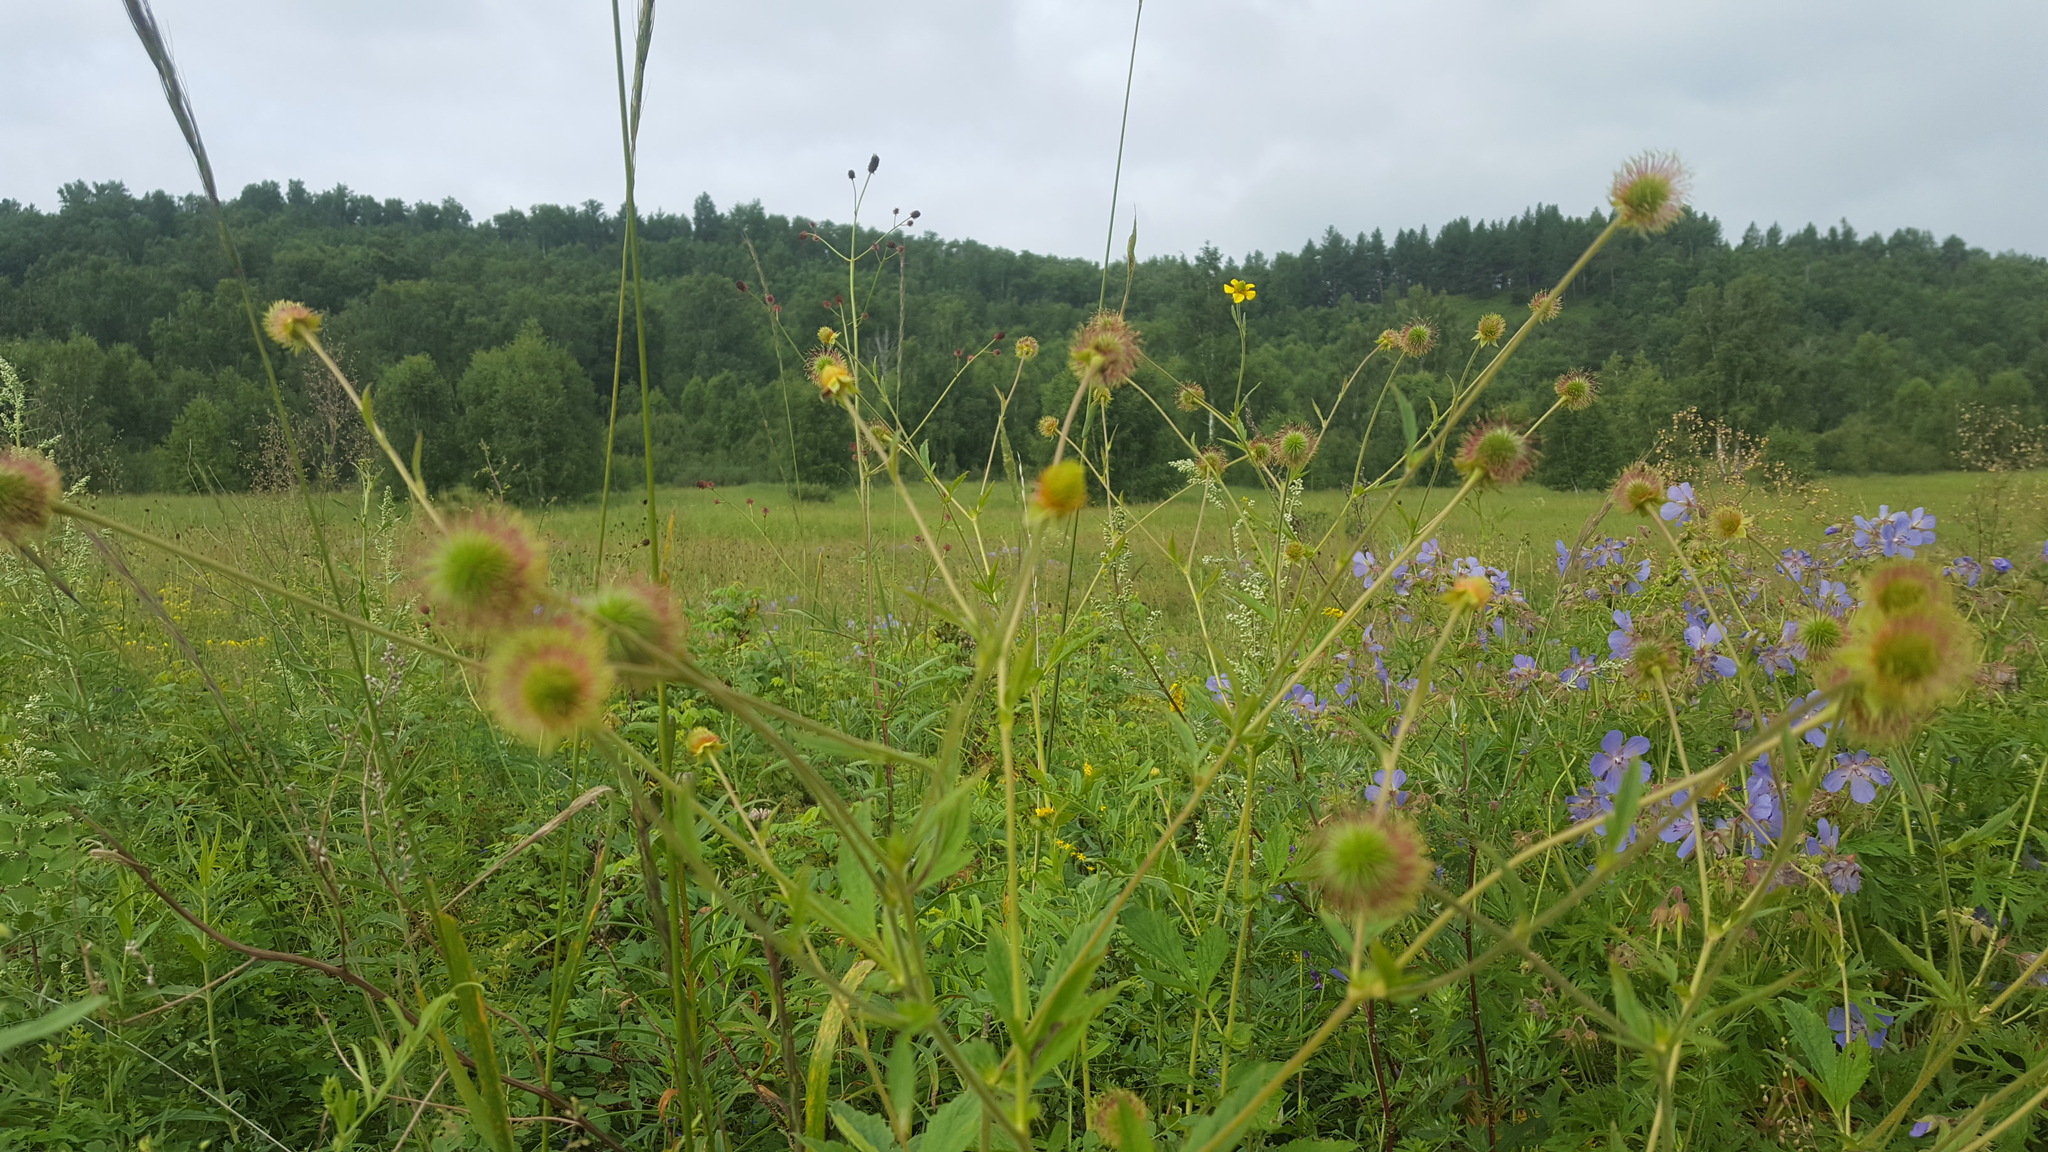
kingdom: Plantae
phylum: Tracheophyta
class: Magnoliopsida
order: Rosales
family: Rosaceae
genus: Geum
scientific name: Geum aleppicum
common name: Yellow avens
